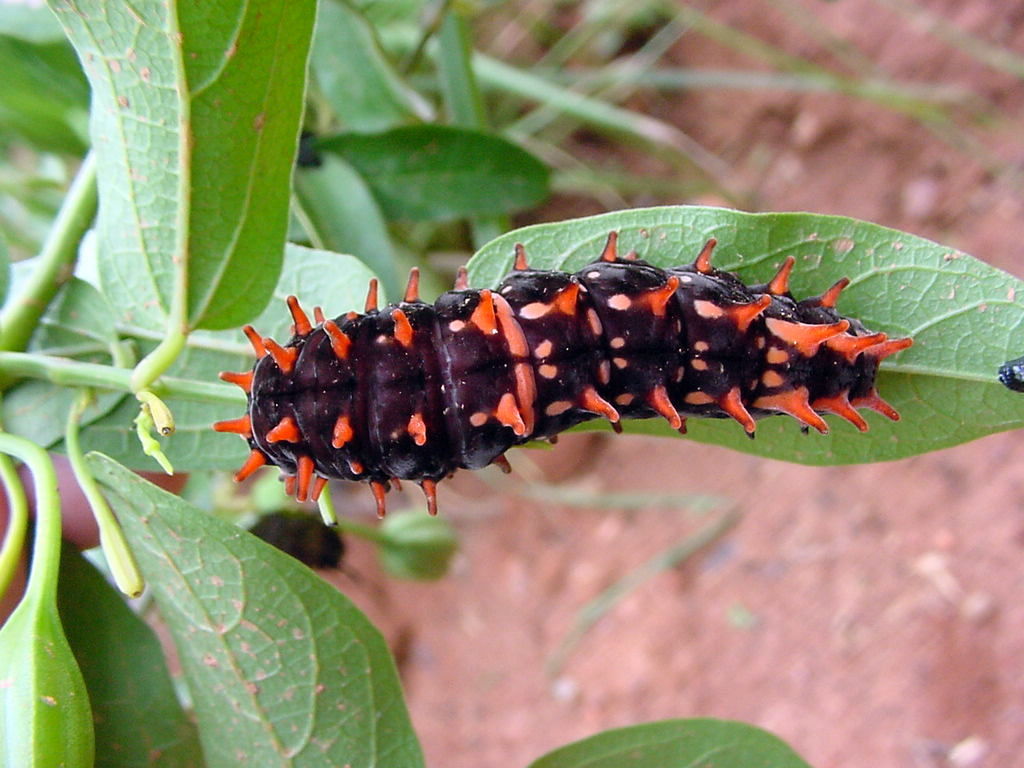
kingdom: Animalia
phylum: Arthropoda
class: Insecta
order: Lepidoptera
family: Papilionidae
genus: Pachliopta
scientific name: Pachliopta hector
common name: Crimson rose
